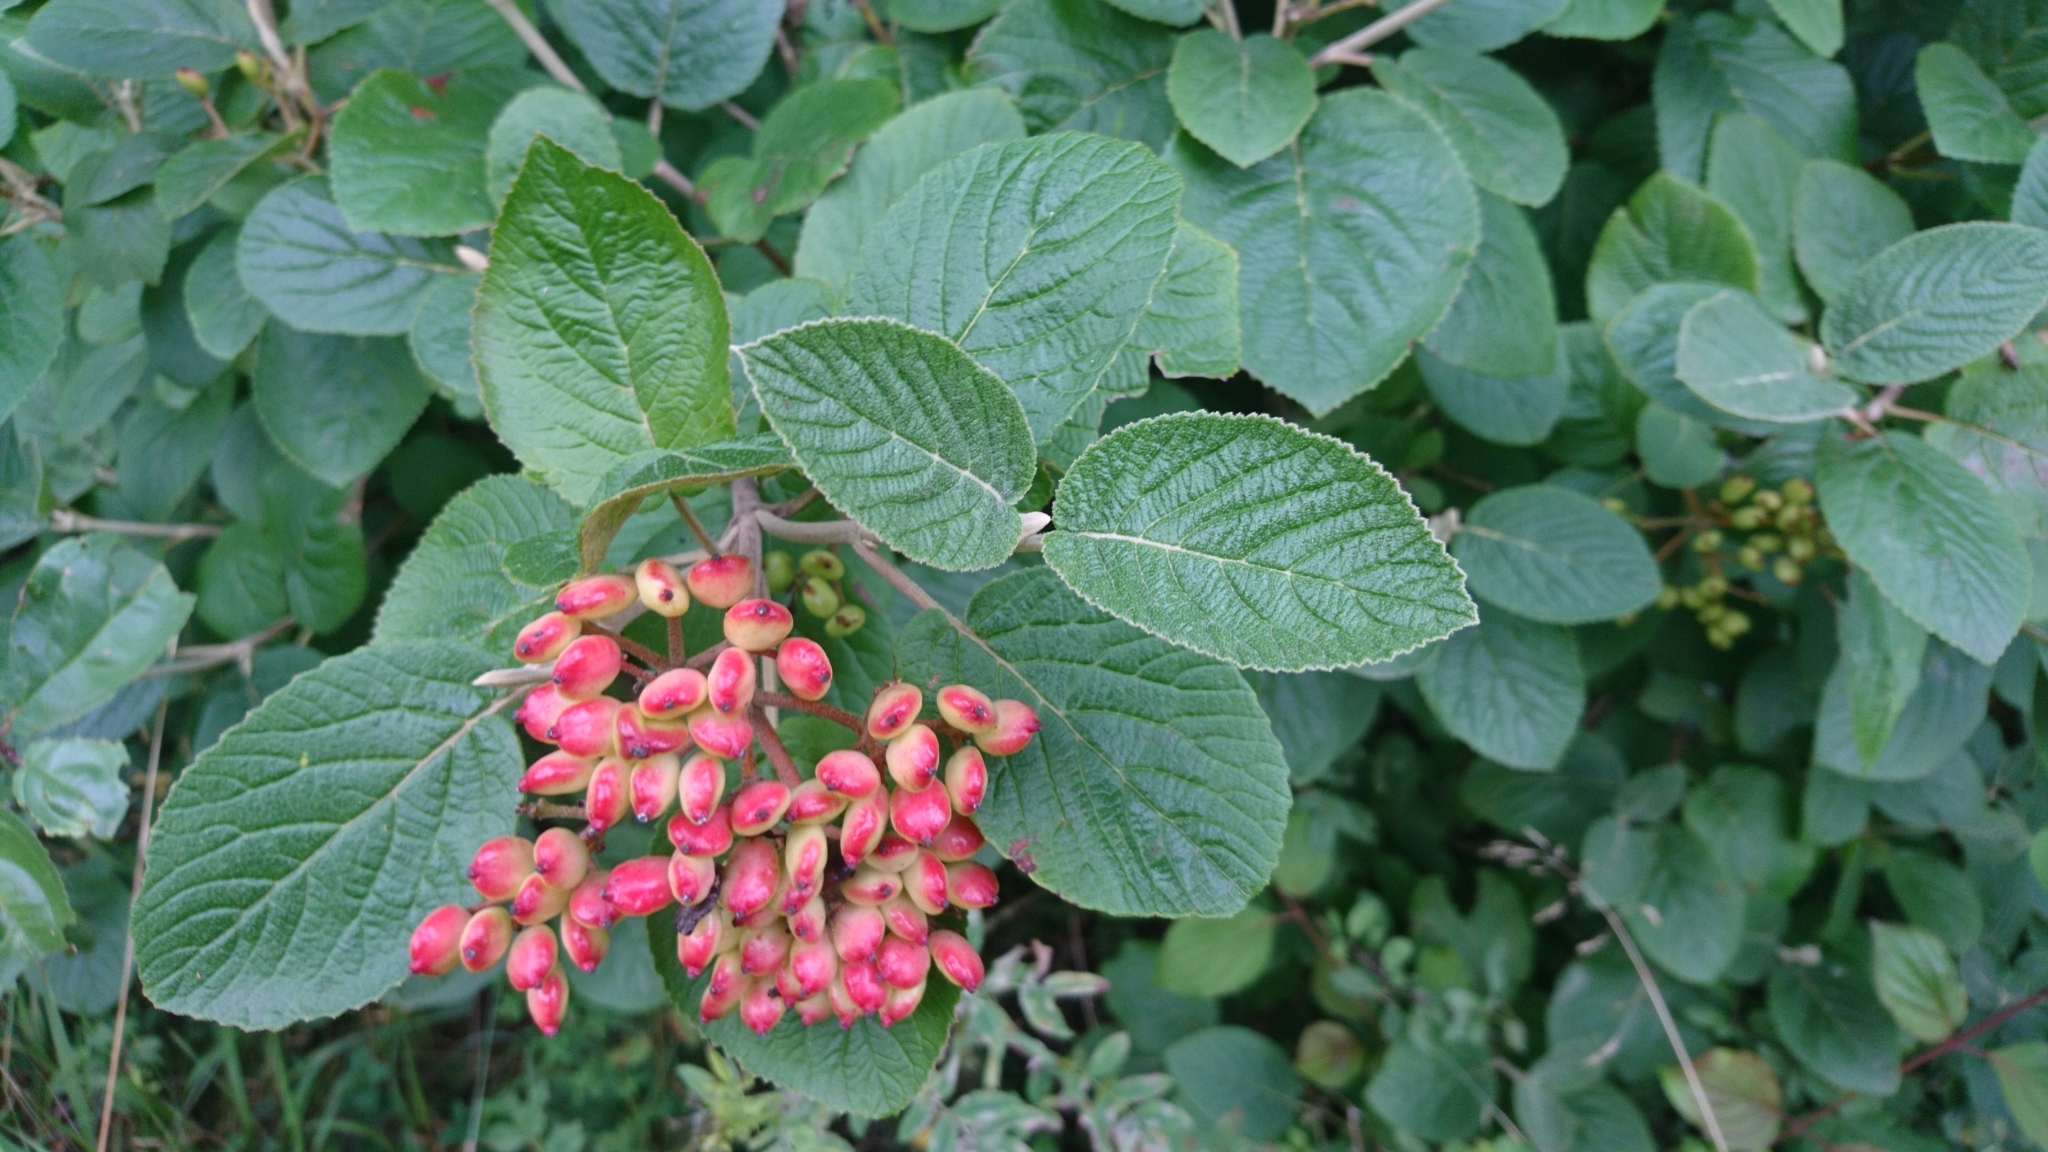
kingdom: Plantae
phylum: Tracheophyta
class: Magnoliopsida
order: Dipsacales
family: Viburnaceae
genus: Viburnum
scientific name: Viburnum lantana
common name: Wayfaring tree
